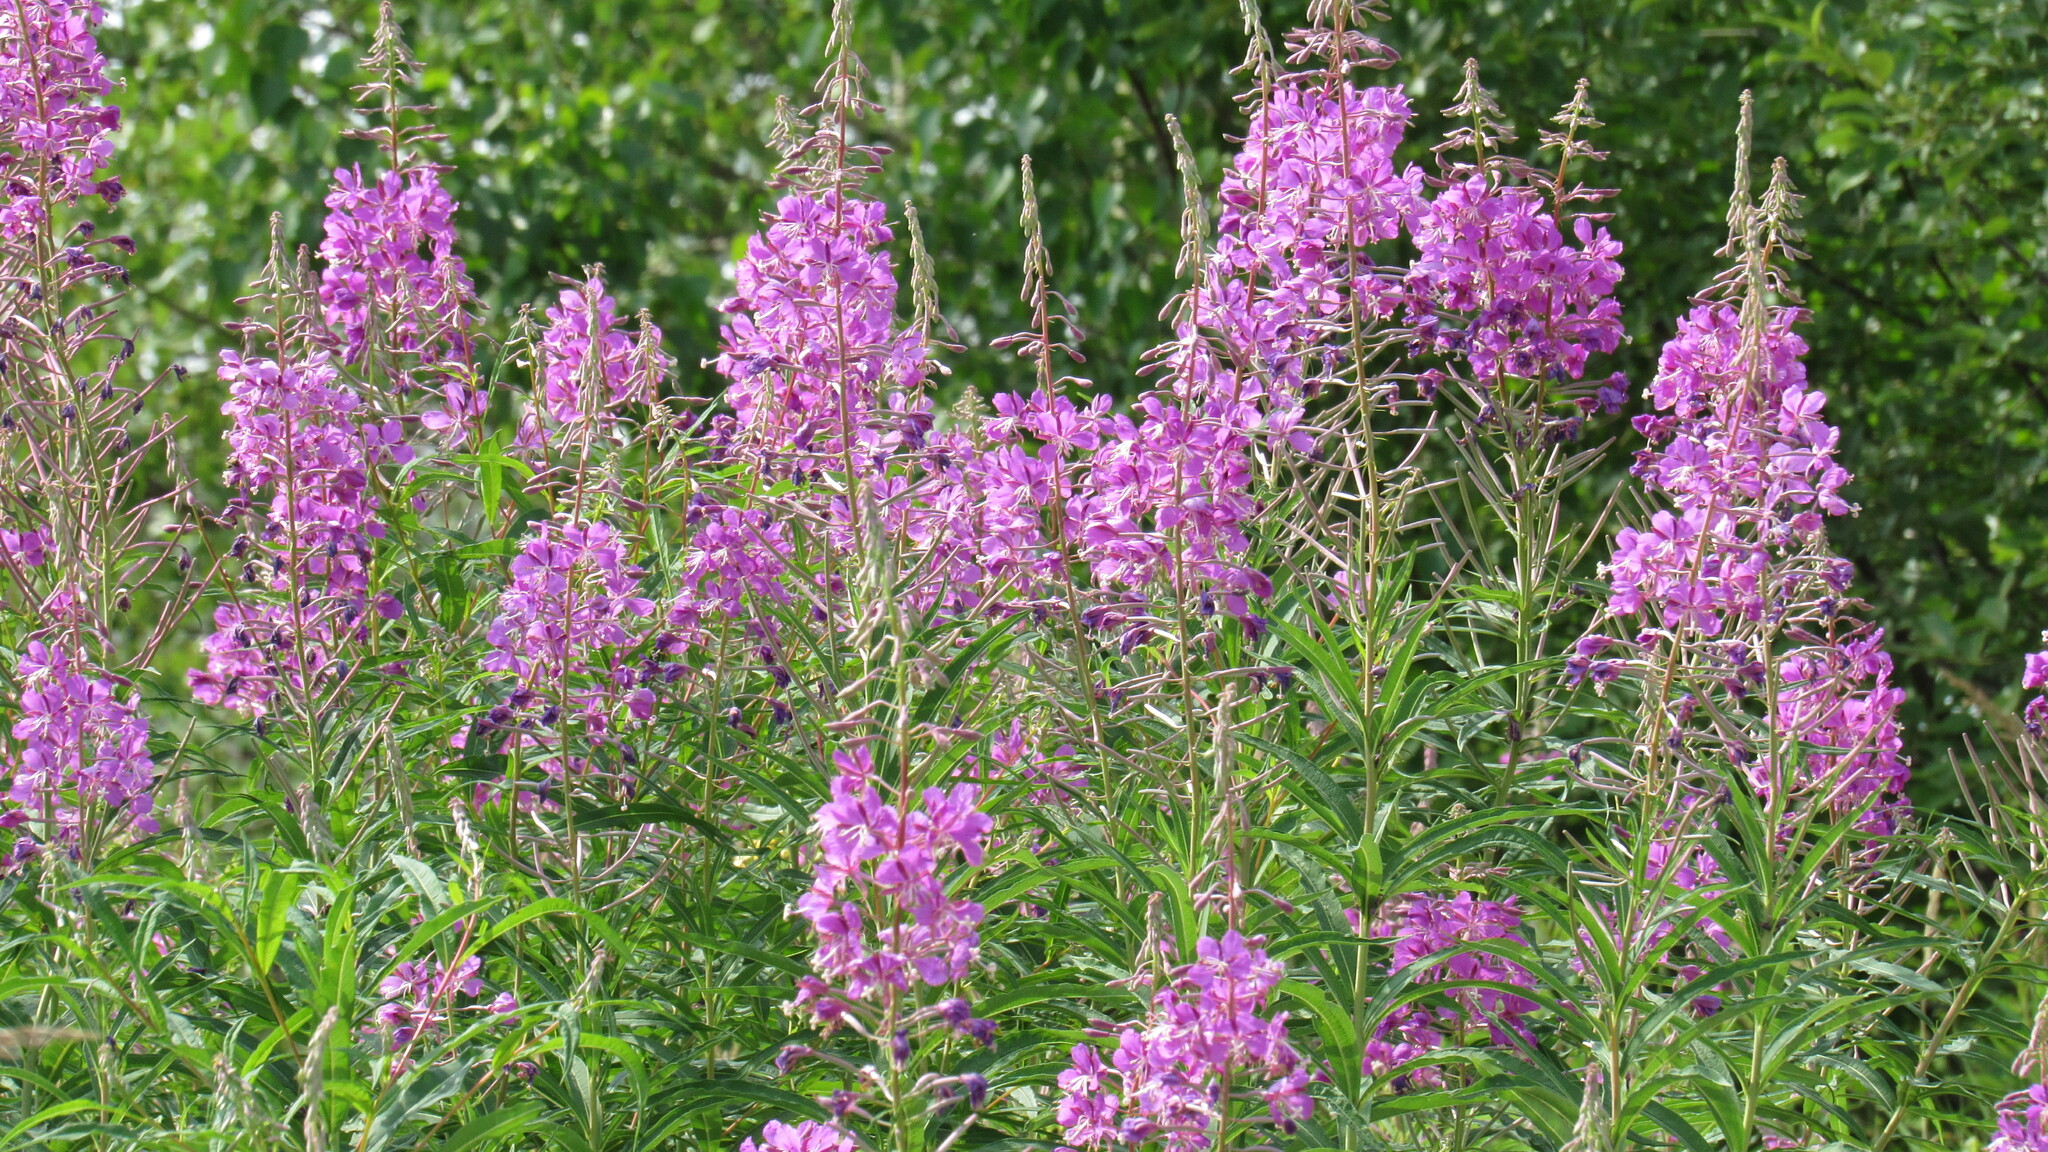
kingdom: Plantae
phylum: Tracheophyta
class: Magnoliopsida
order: Myrtales
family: Onagraceae
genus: Chamaenerion
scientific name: Chamaenerion angustifolium
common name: Fireweed
